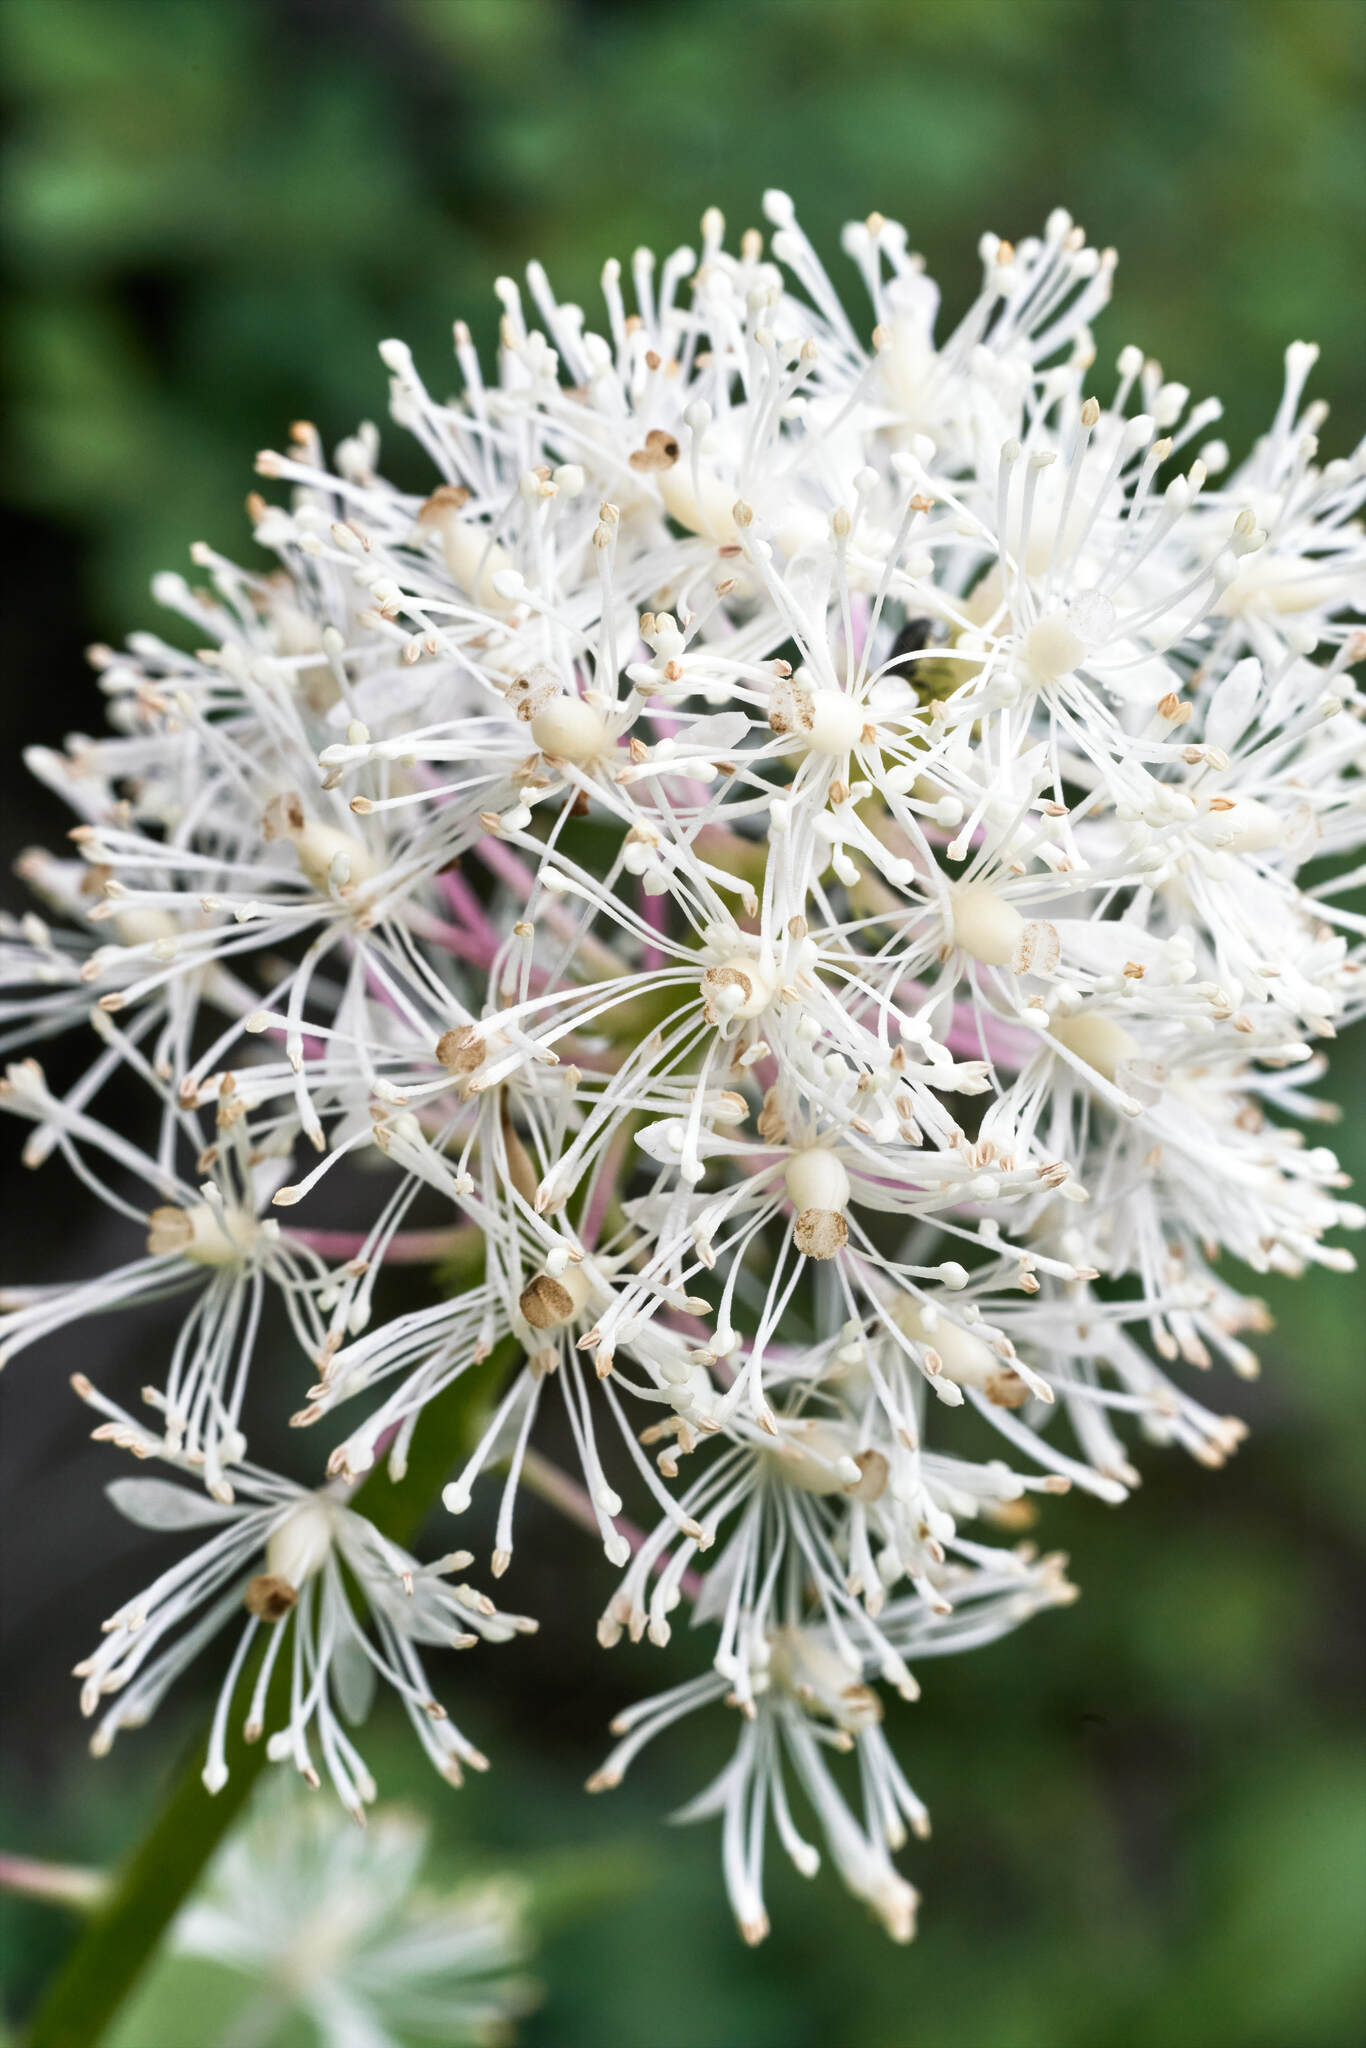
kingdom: Plantae
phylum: Tracheophyta
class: Magnoliopsida
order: Ranunculales
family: Ranunculaceae
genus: Actaea
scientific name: Actaea rubra
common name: Red baneberry
